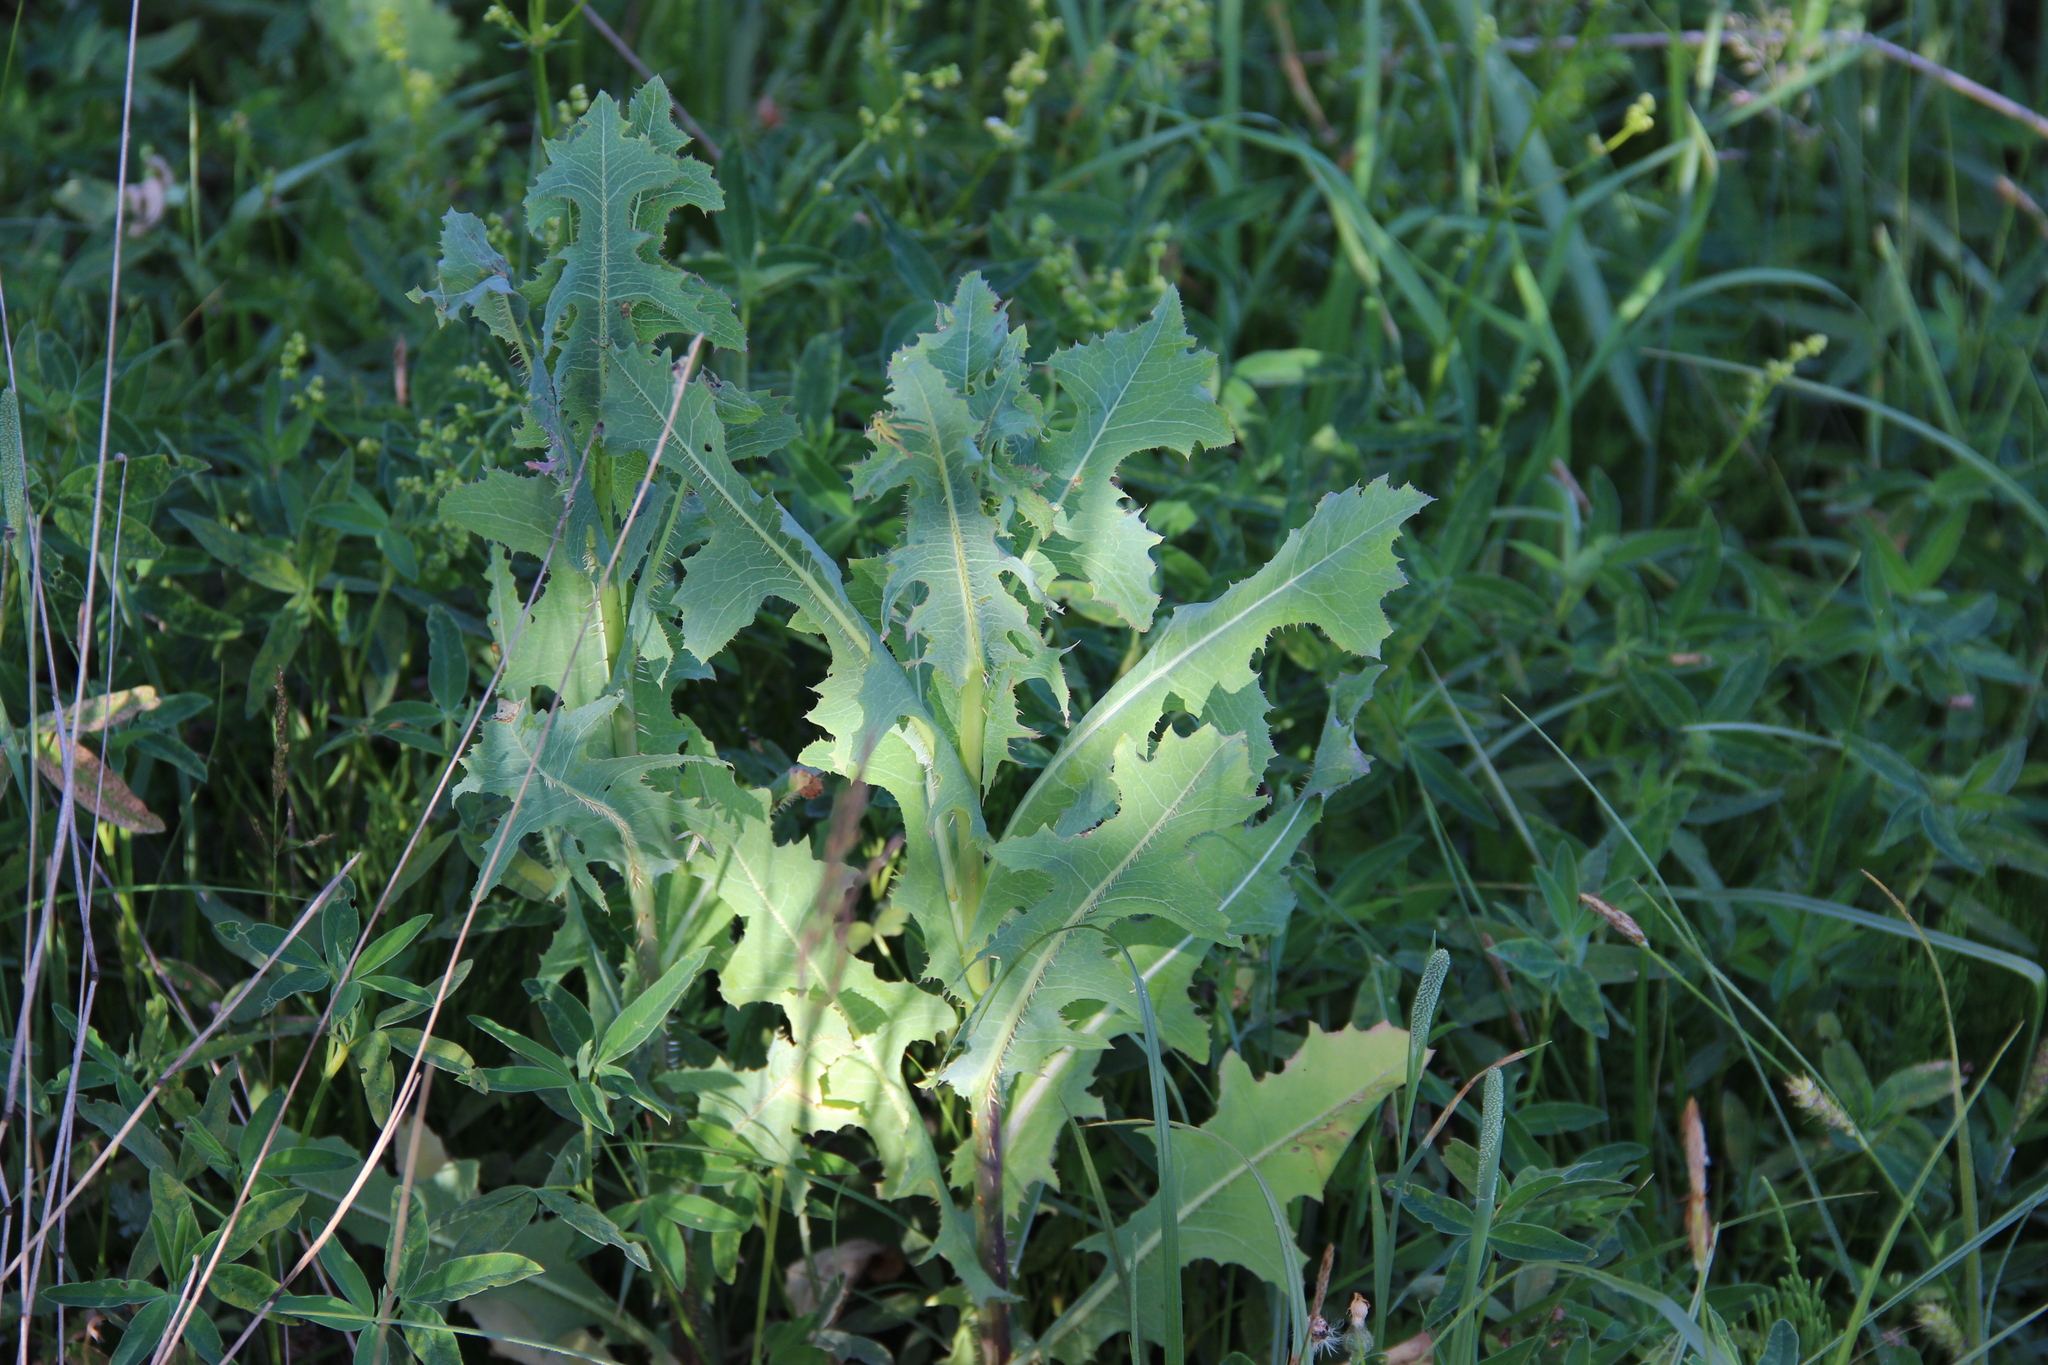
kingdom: Plantae
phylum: Tracheophyta
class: Magnoliopsida
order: Asterales
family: Asteraceae
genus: Lactuca
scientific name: Lactuca serriola
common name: Prickly lettuce
